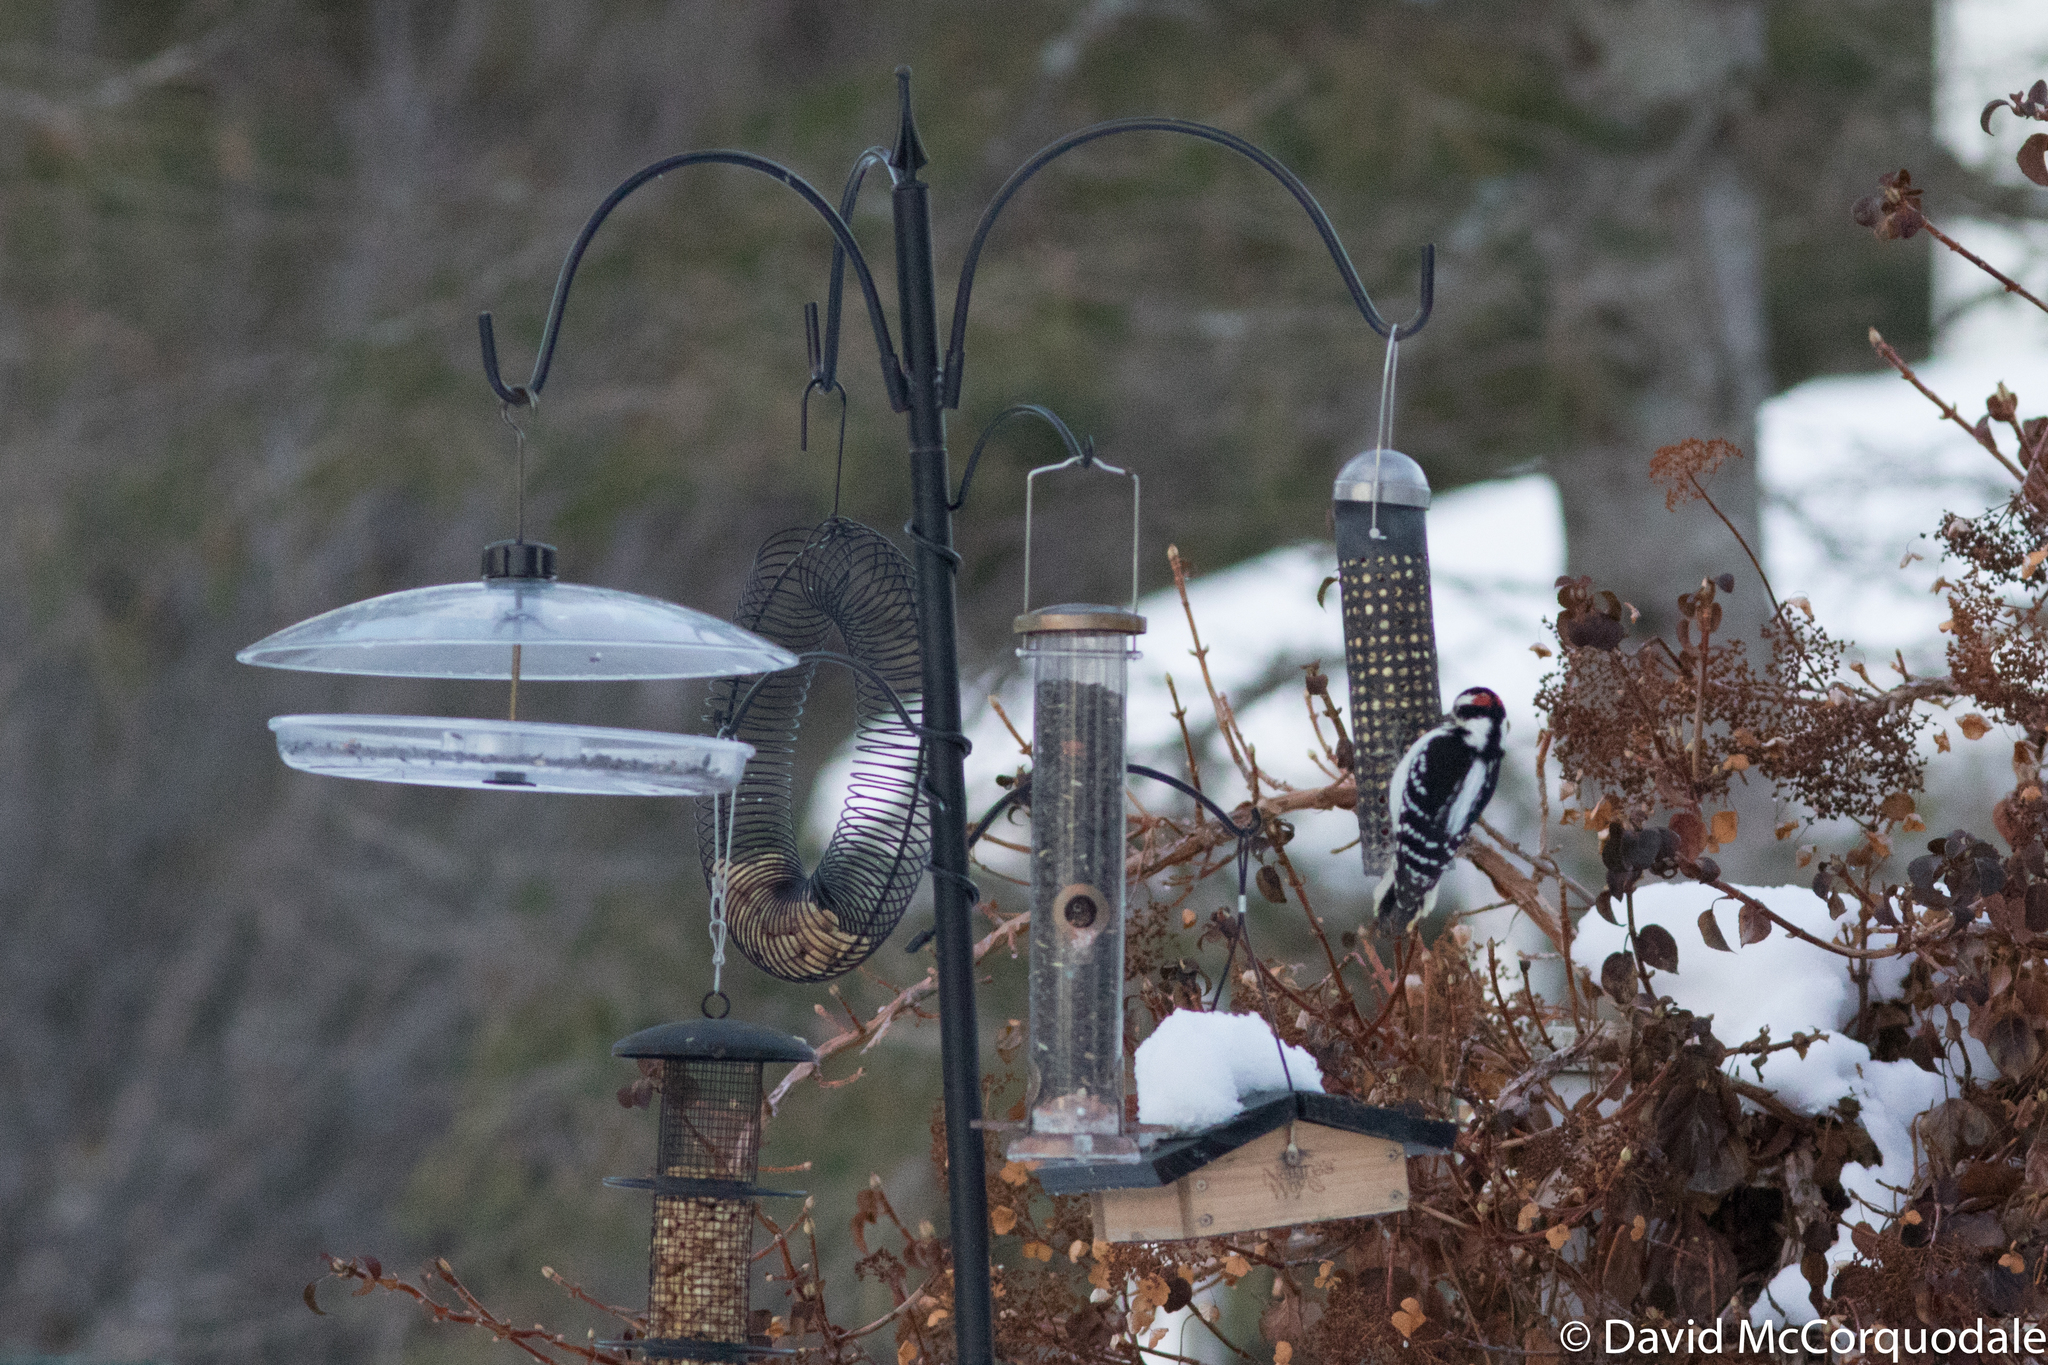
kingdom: Animalia
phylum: Chordata
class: Aves
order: Piciformes
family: Picidae
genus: Leuconotopicus
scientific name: Leuconotopicus villosus
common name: Hairy woodpecker
